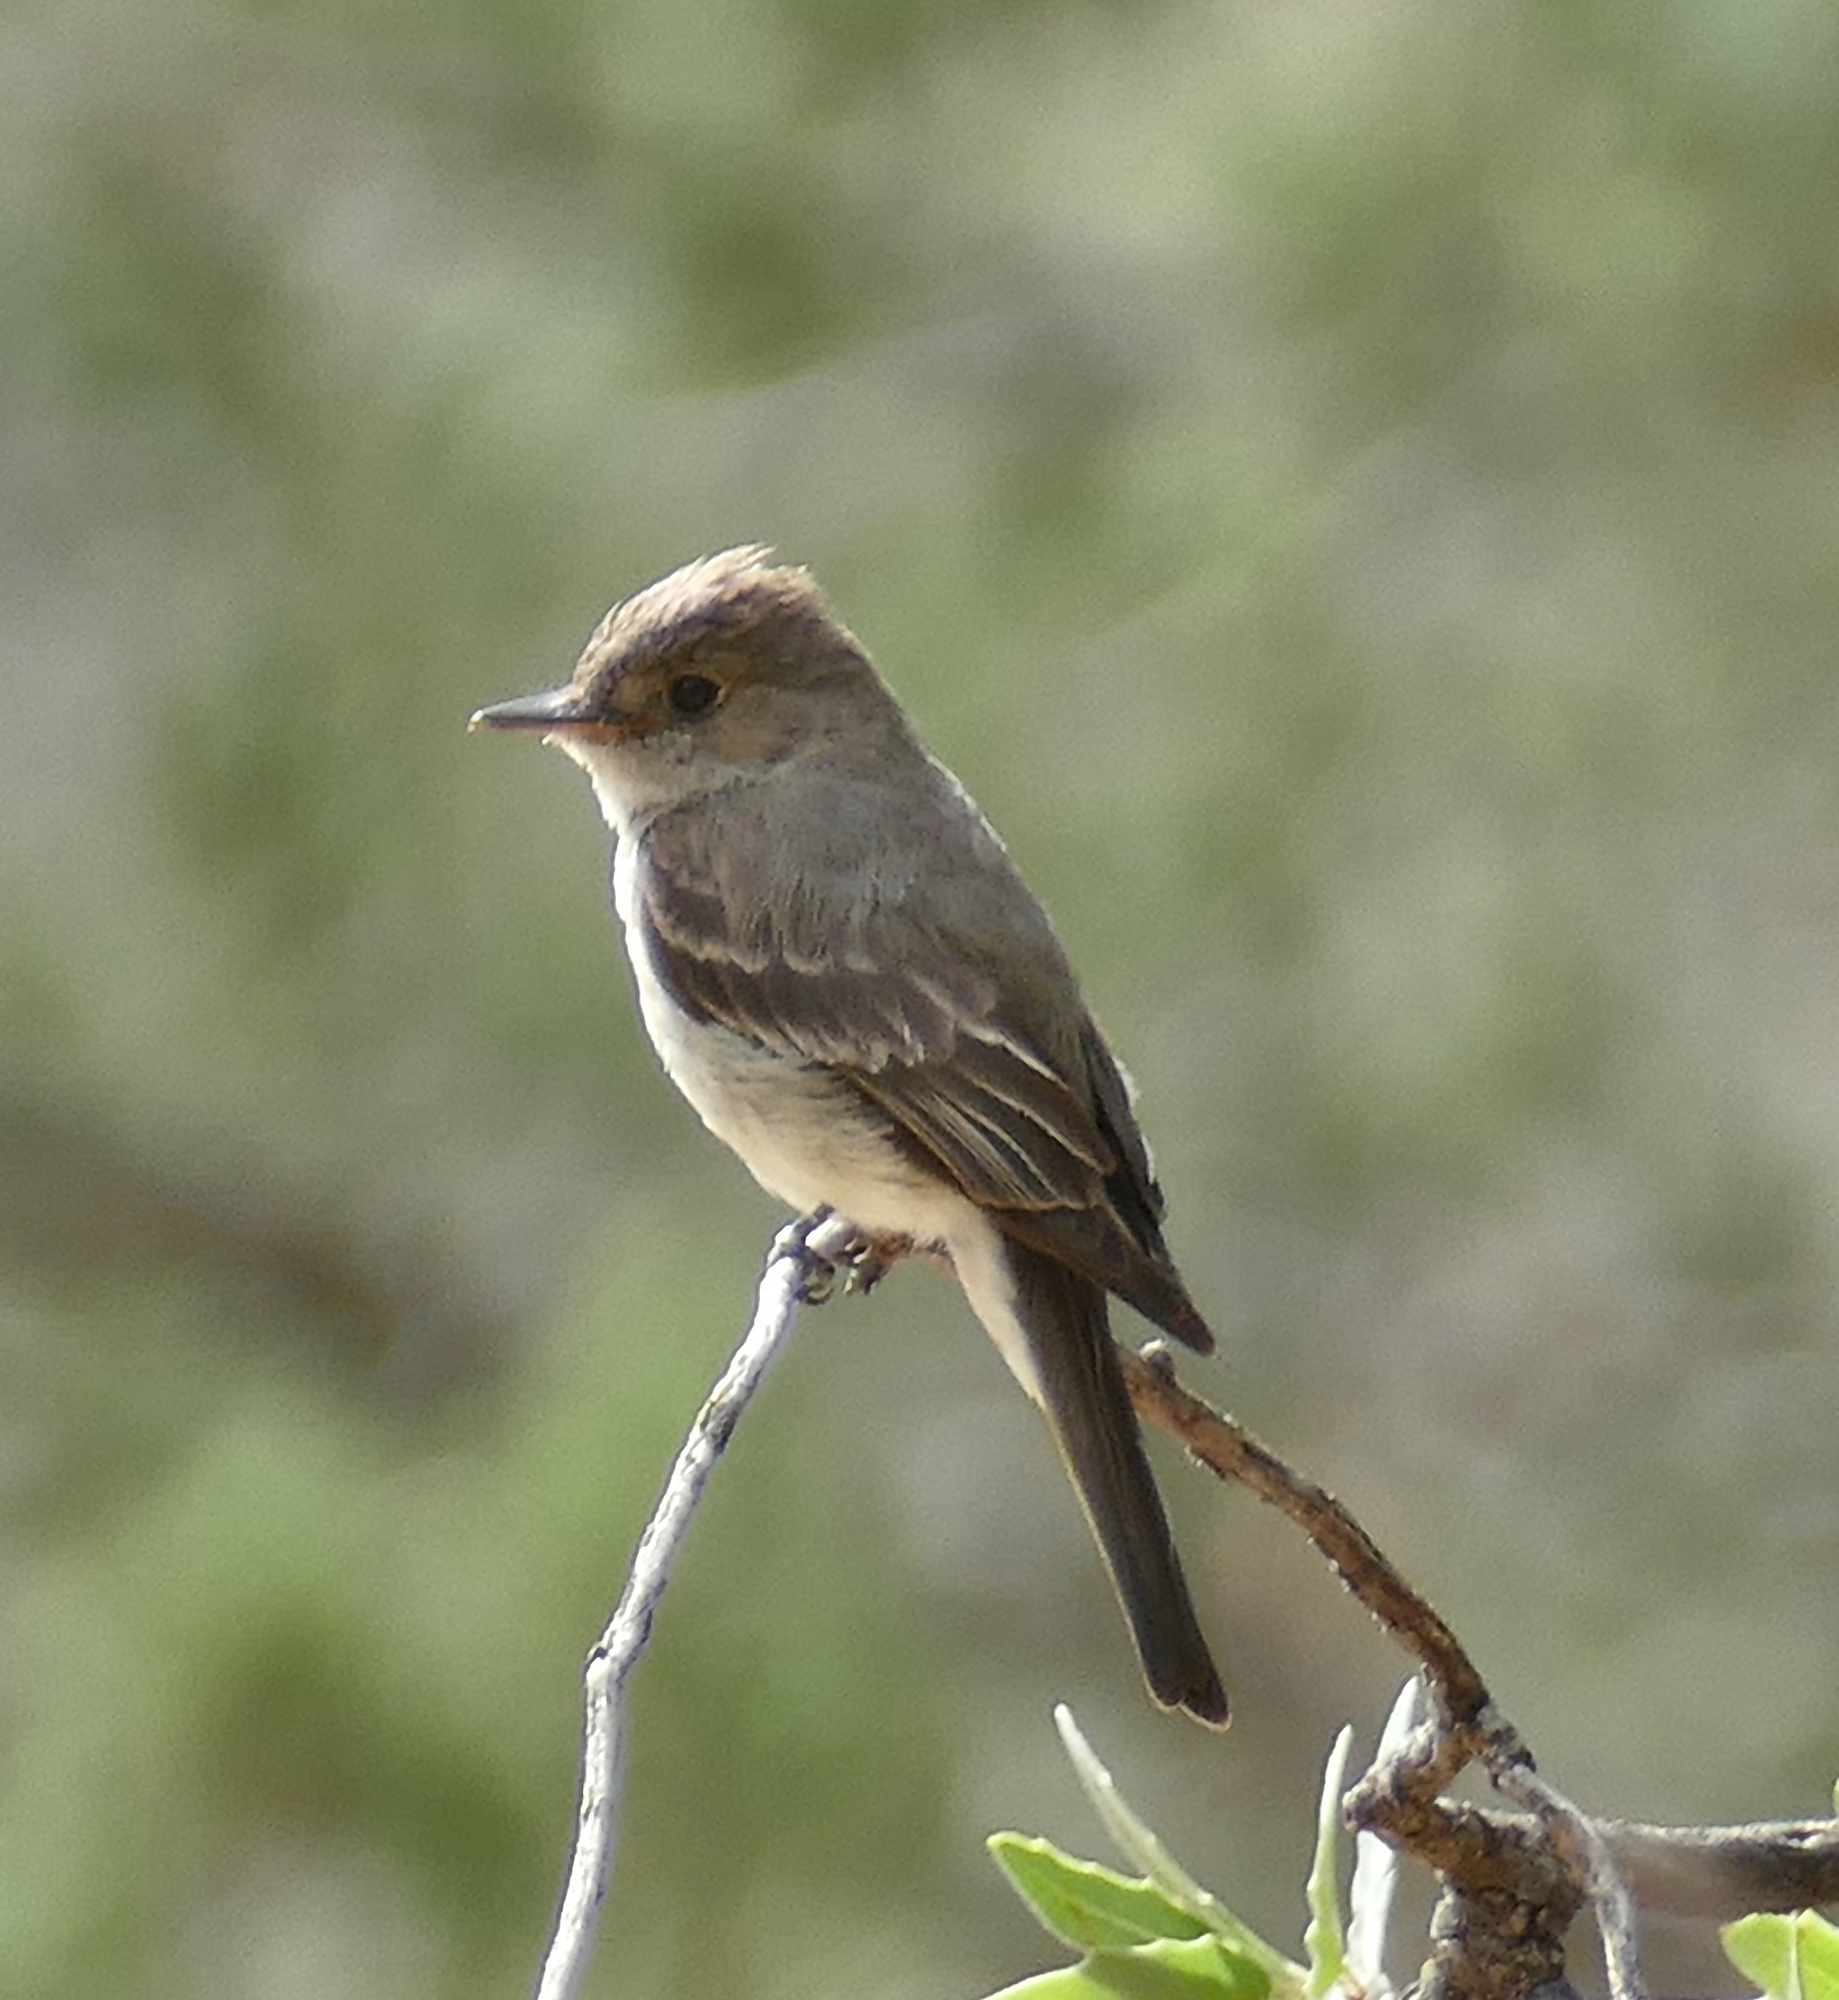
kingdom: Animalia
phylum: Chordata
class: Aves
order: Passeriformes
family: Tyrannidae
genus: Contopus
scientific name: Contopus sordidulus
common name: Western wood-pewee
